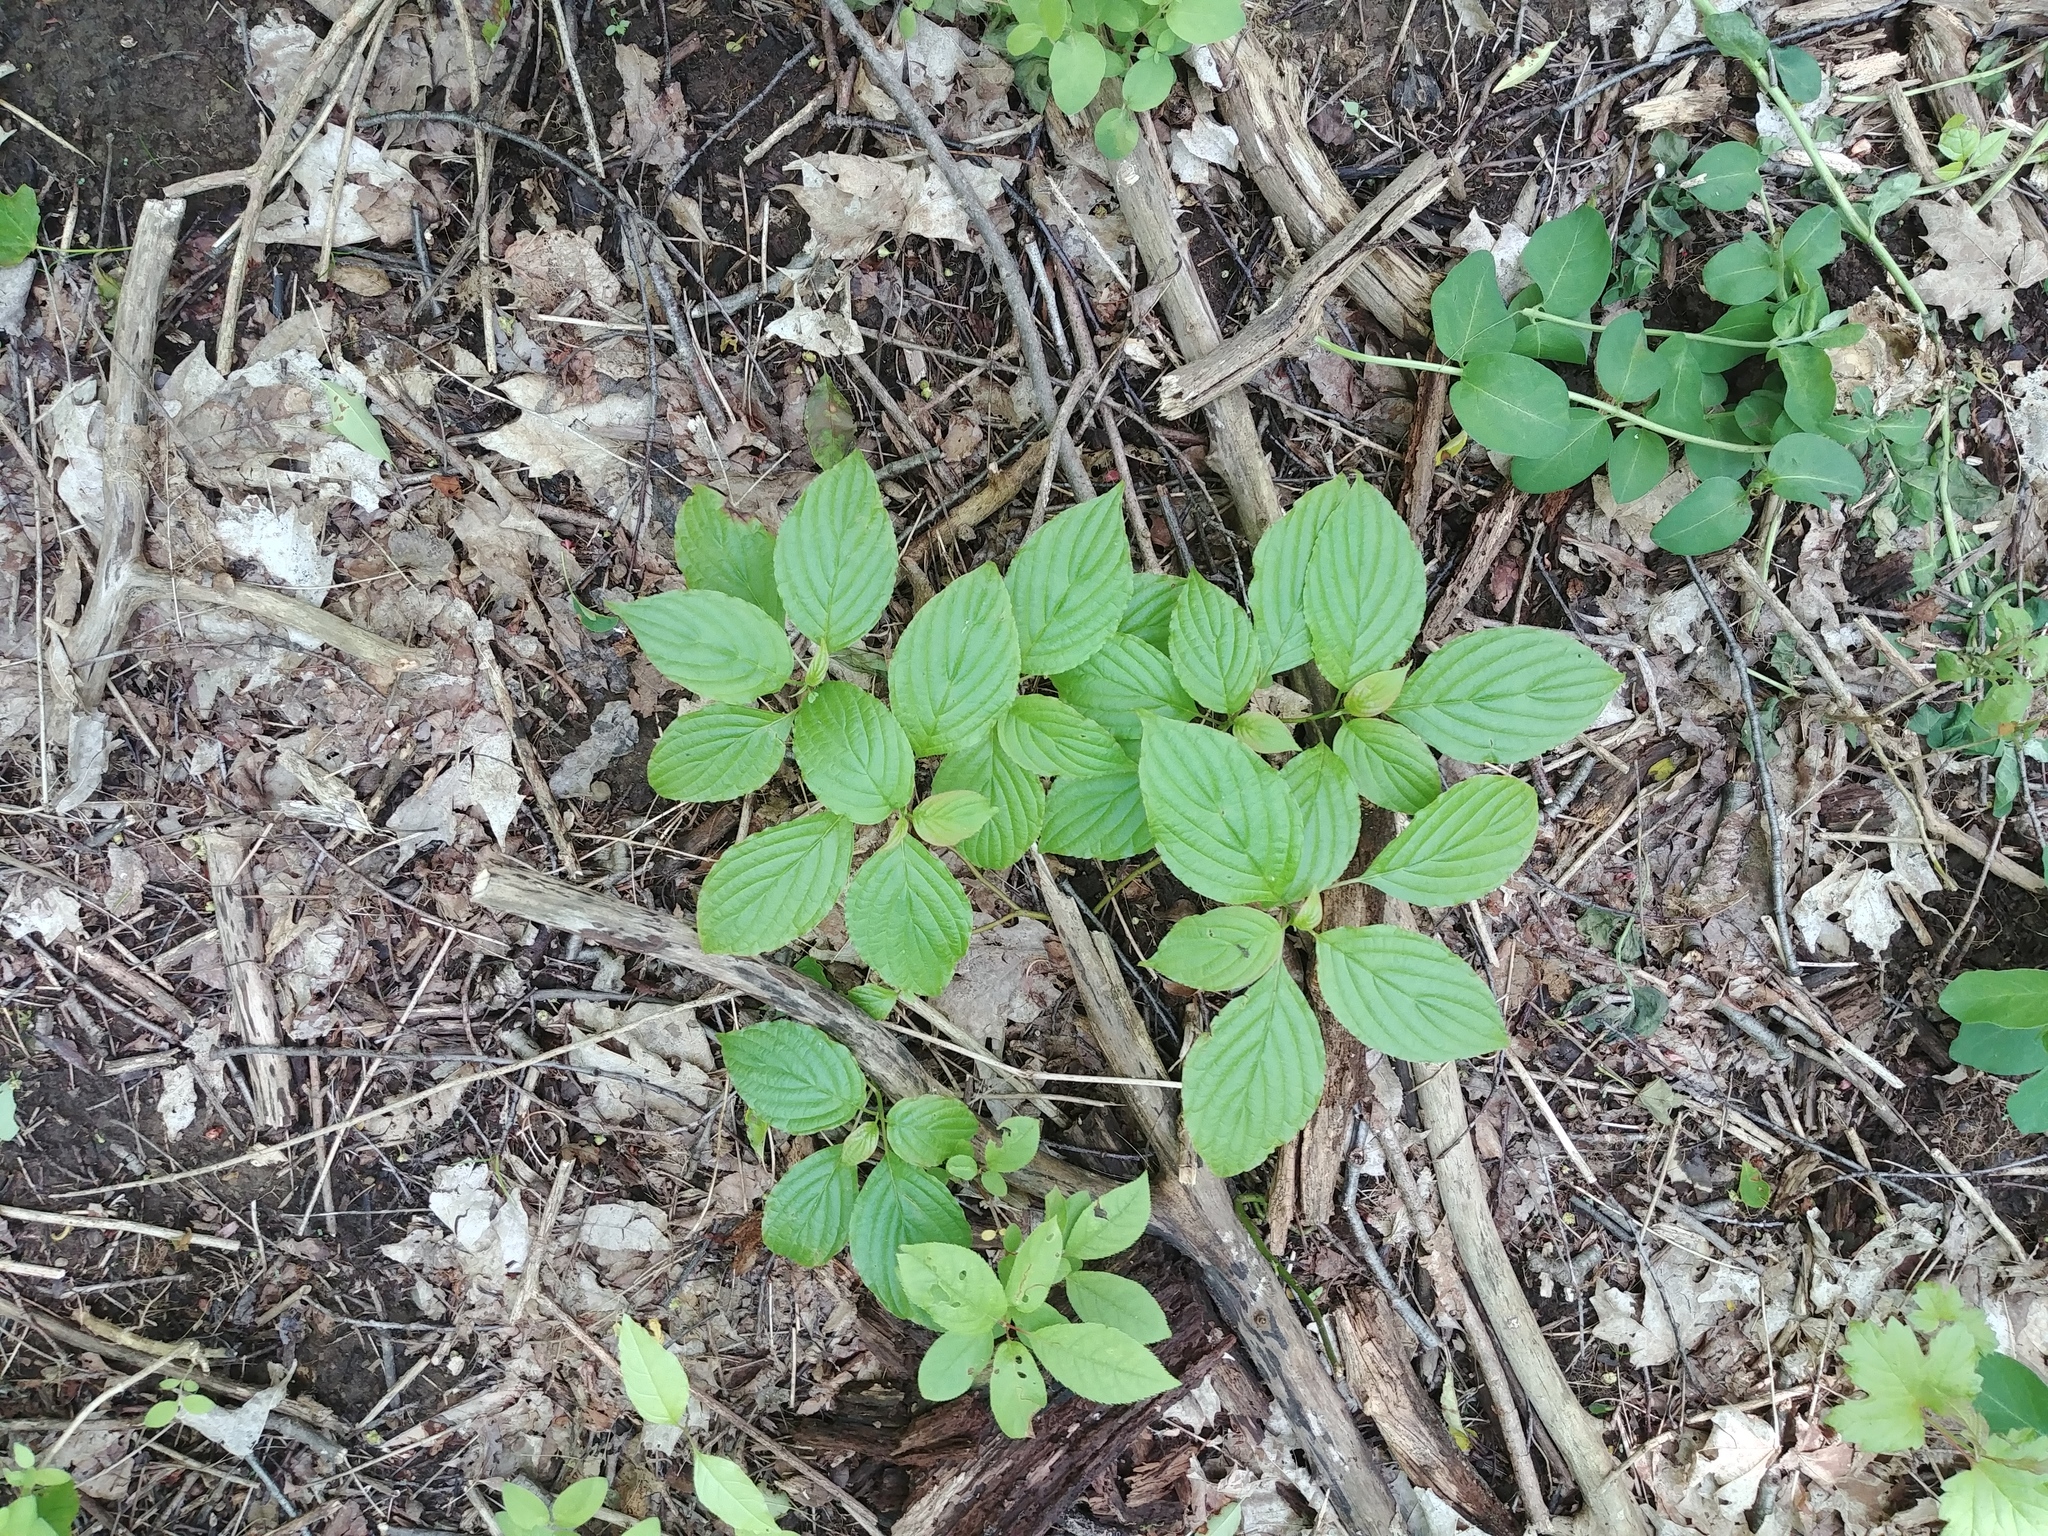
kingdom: Plantae
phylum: Tracheophyta
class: Magnoliopsida
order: Cornales
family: Cornaceae
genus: Cornus
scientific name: Cornus alternifolia
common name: Pagoda dogwood
